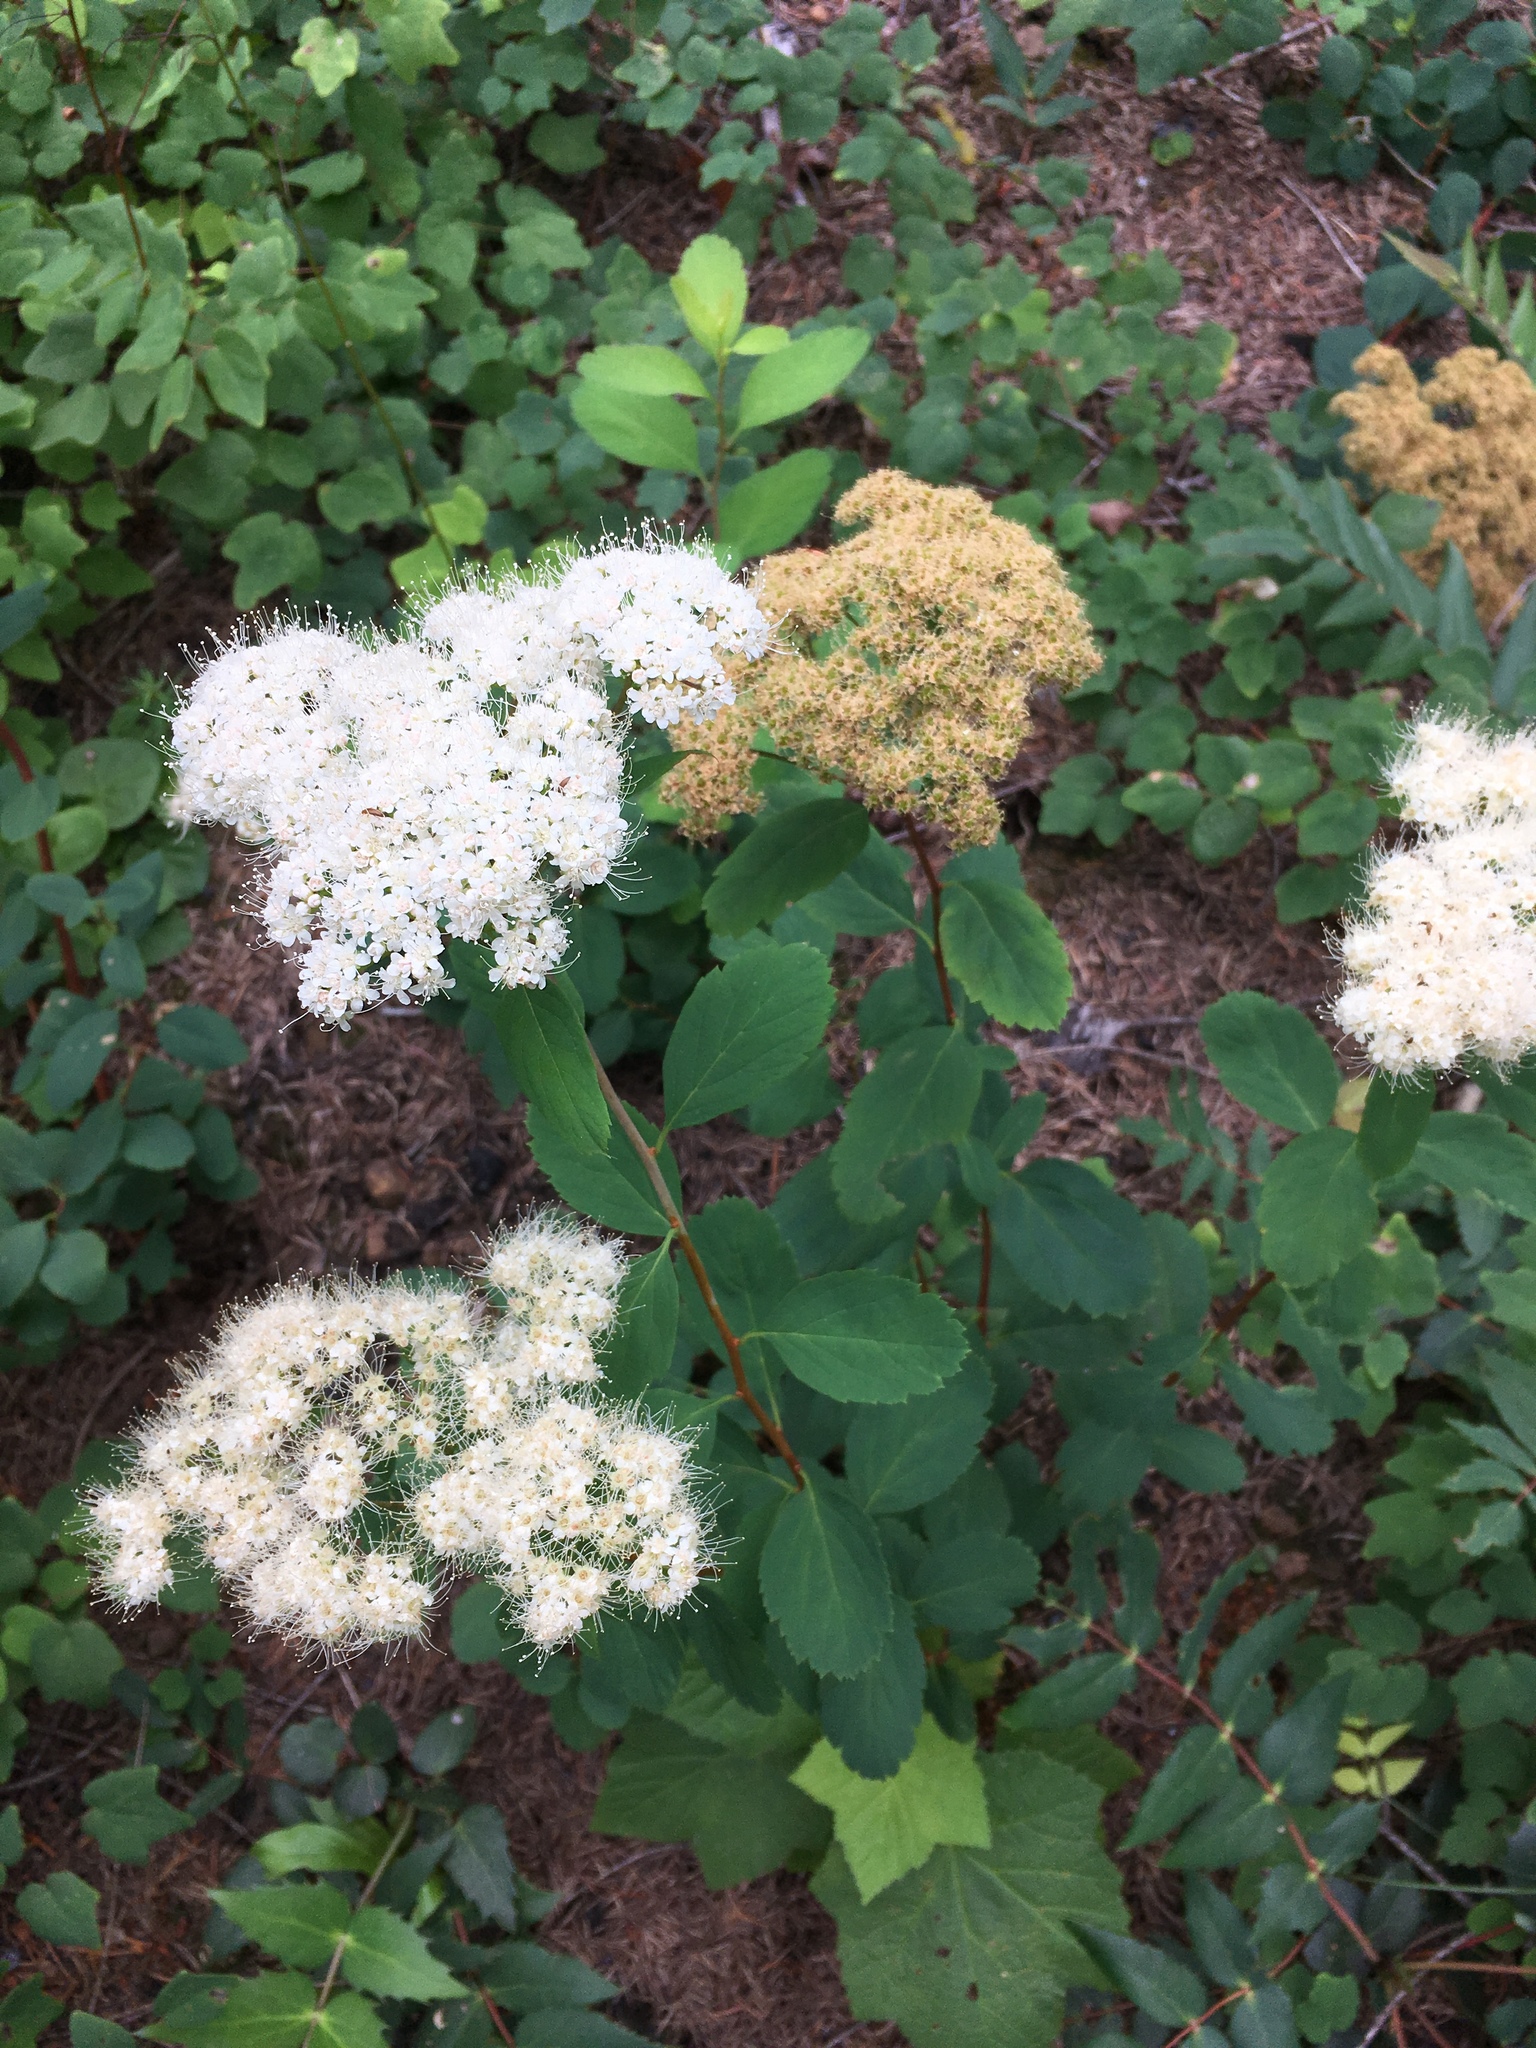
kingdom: Plantae
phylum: Tracheophyta
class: Magnoliopsida
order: Rosales
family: Rosaceae
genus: Spiraea
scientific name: Spiraea lucida
